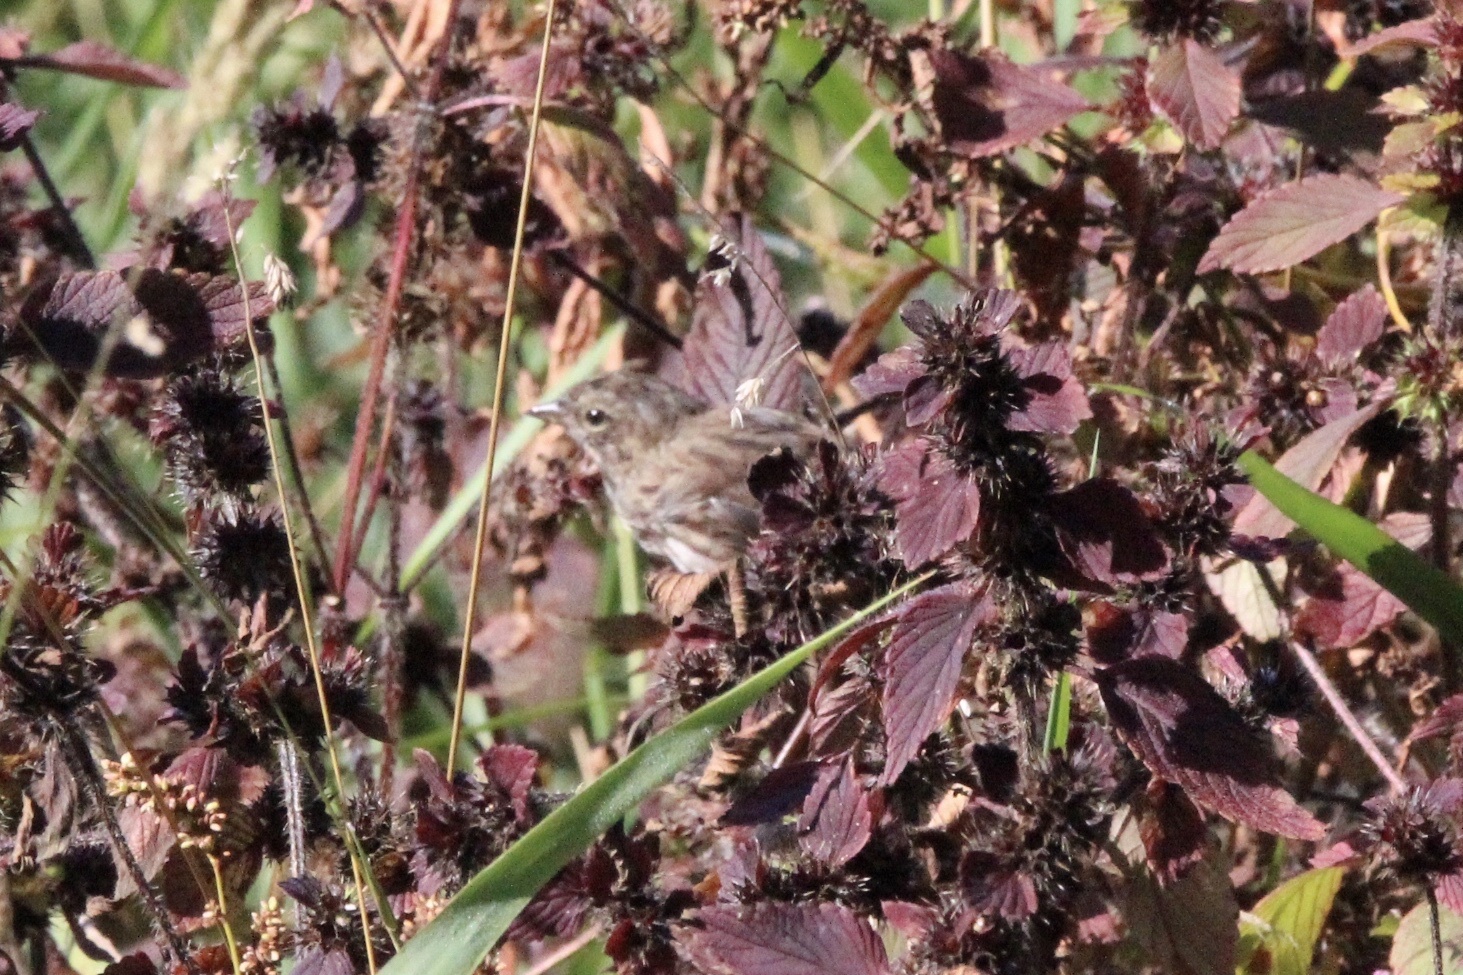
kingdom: Animalia
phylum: Chordata
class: Aves
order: Passeriformes
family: Passerellidae
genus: Melospiza
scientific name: Melospiza melodia
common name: Song sparrow
